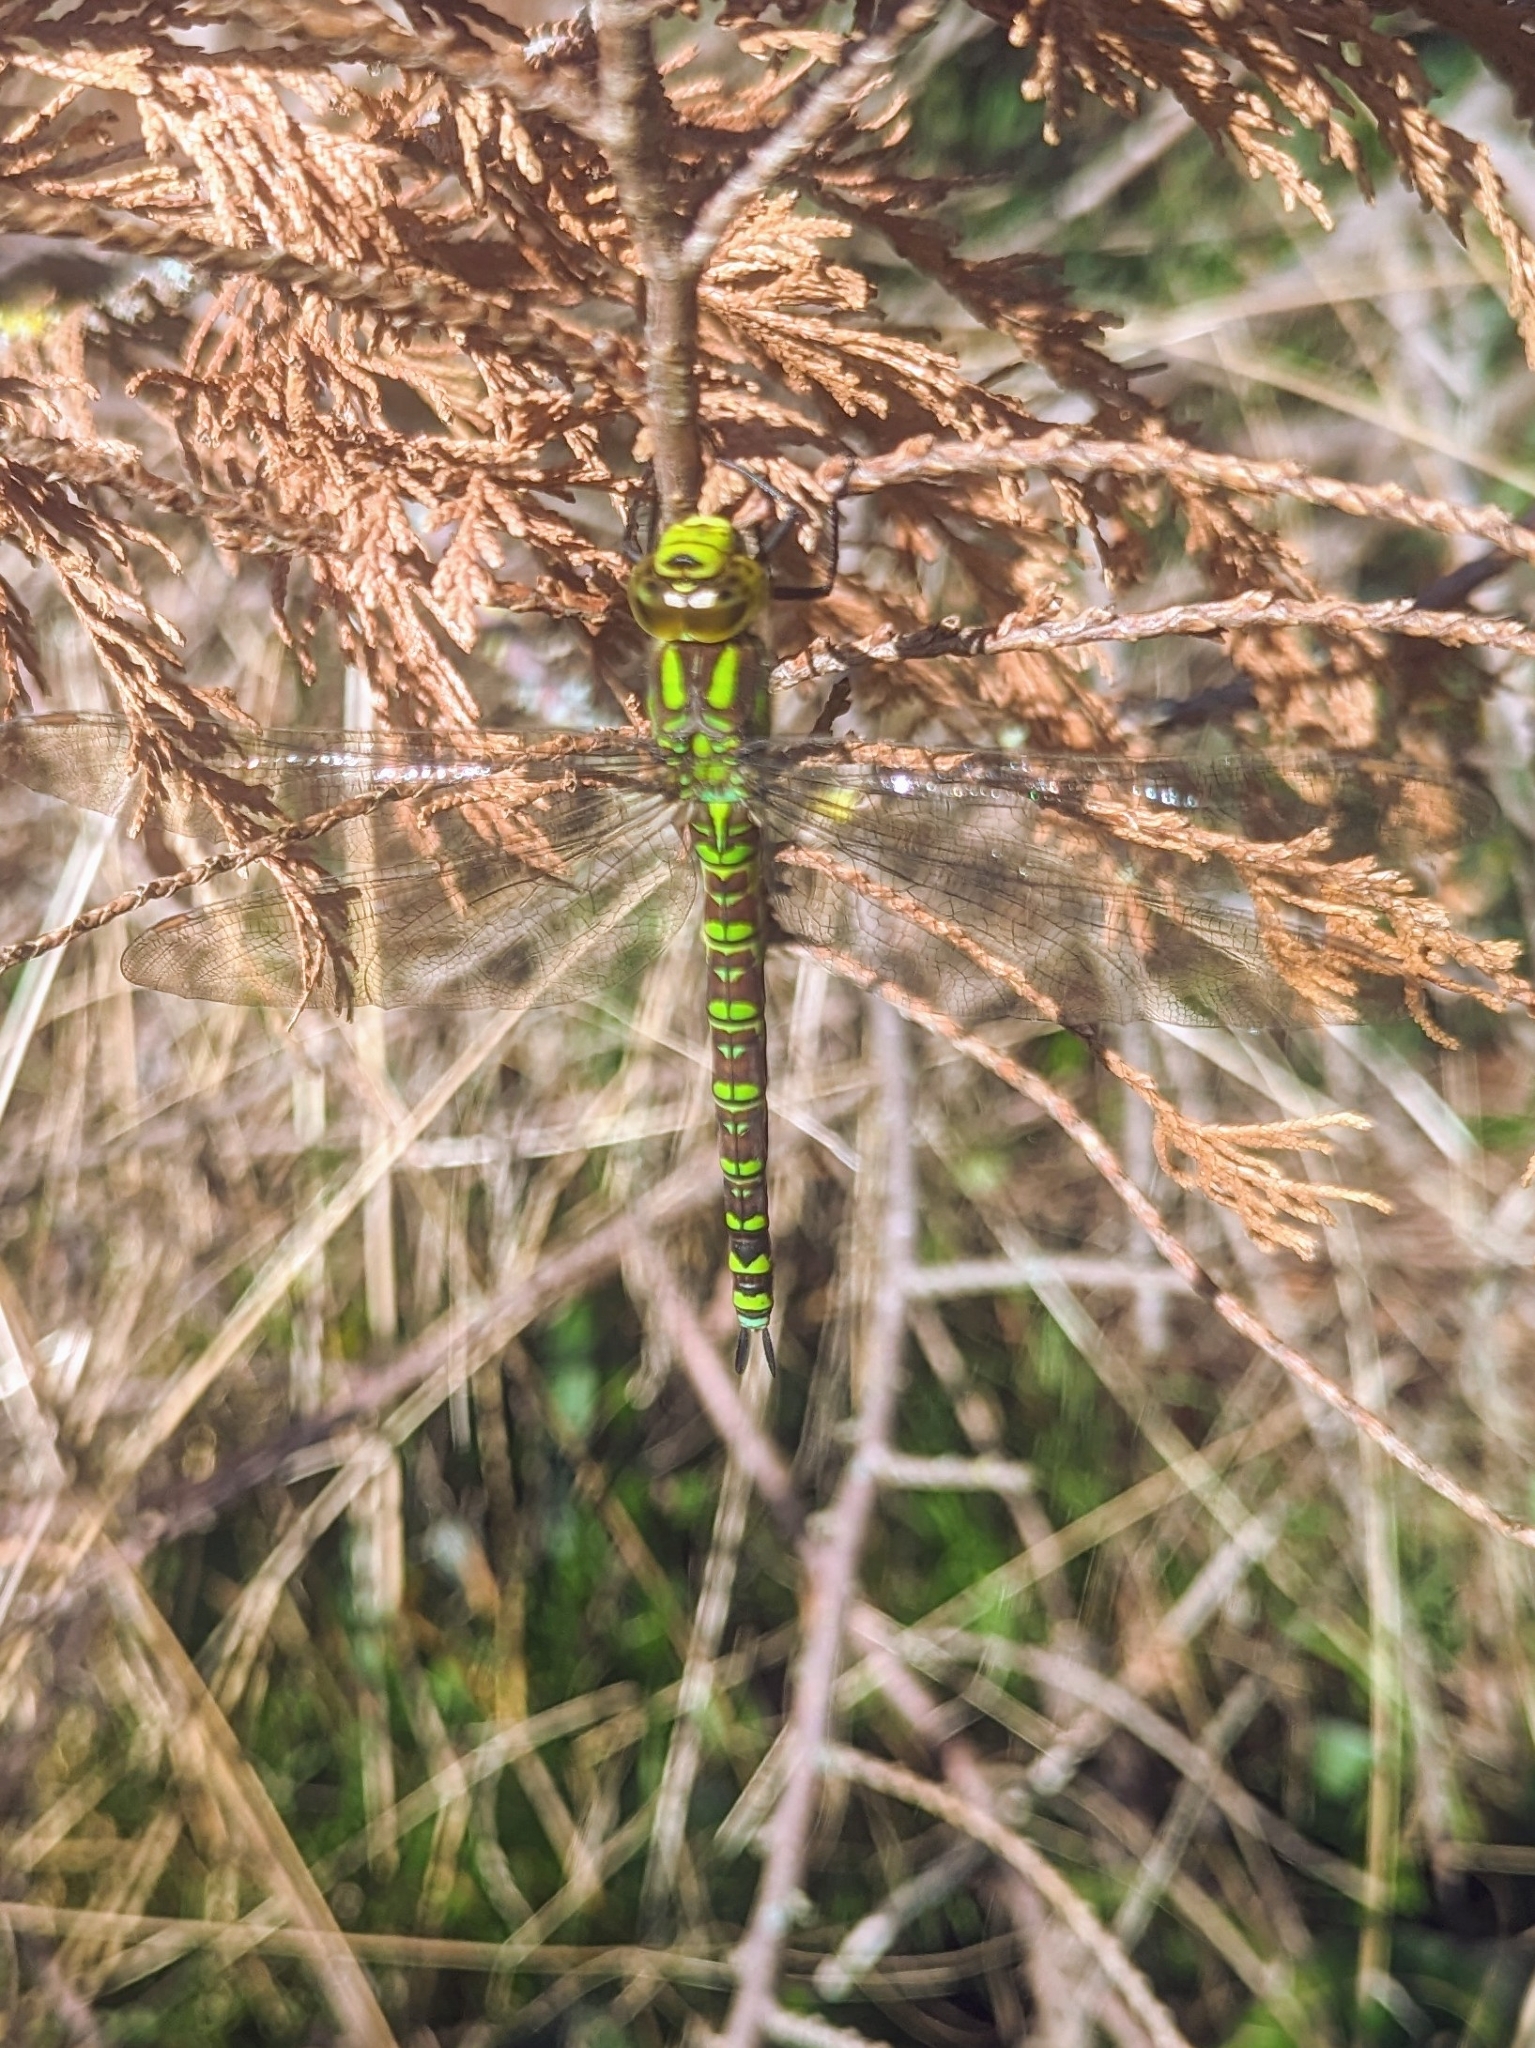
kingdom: Animalia
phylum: Arthropoda
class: Insecta
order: Odonata
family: Aeshnidae
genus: Aeshna
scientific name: Aeshna cyanea
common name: Southern hawker
